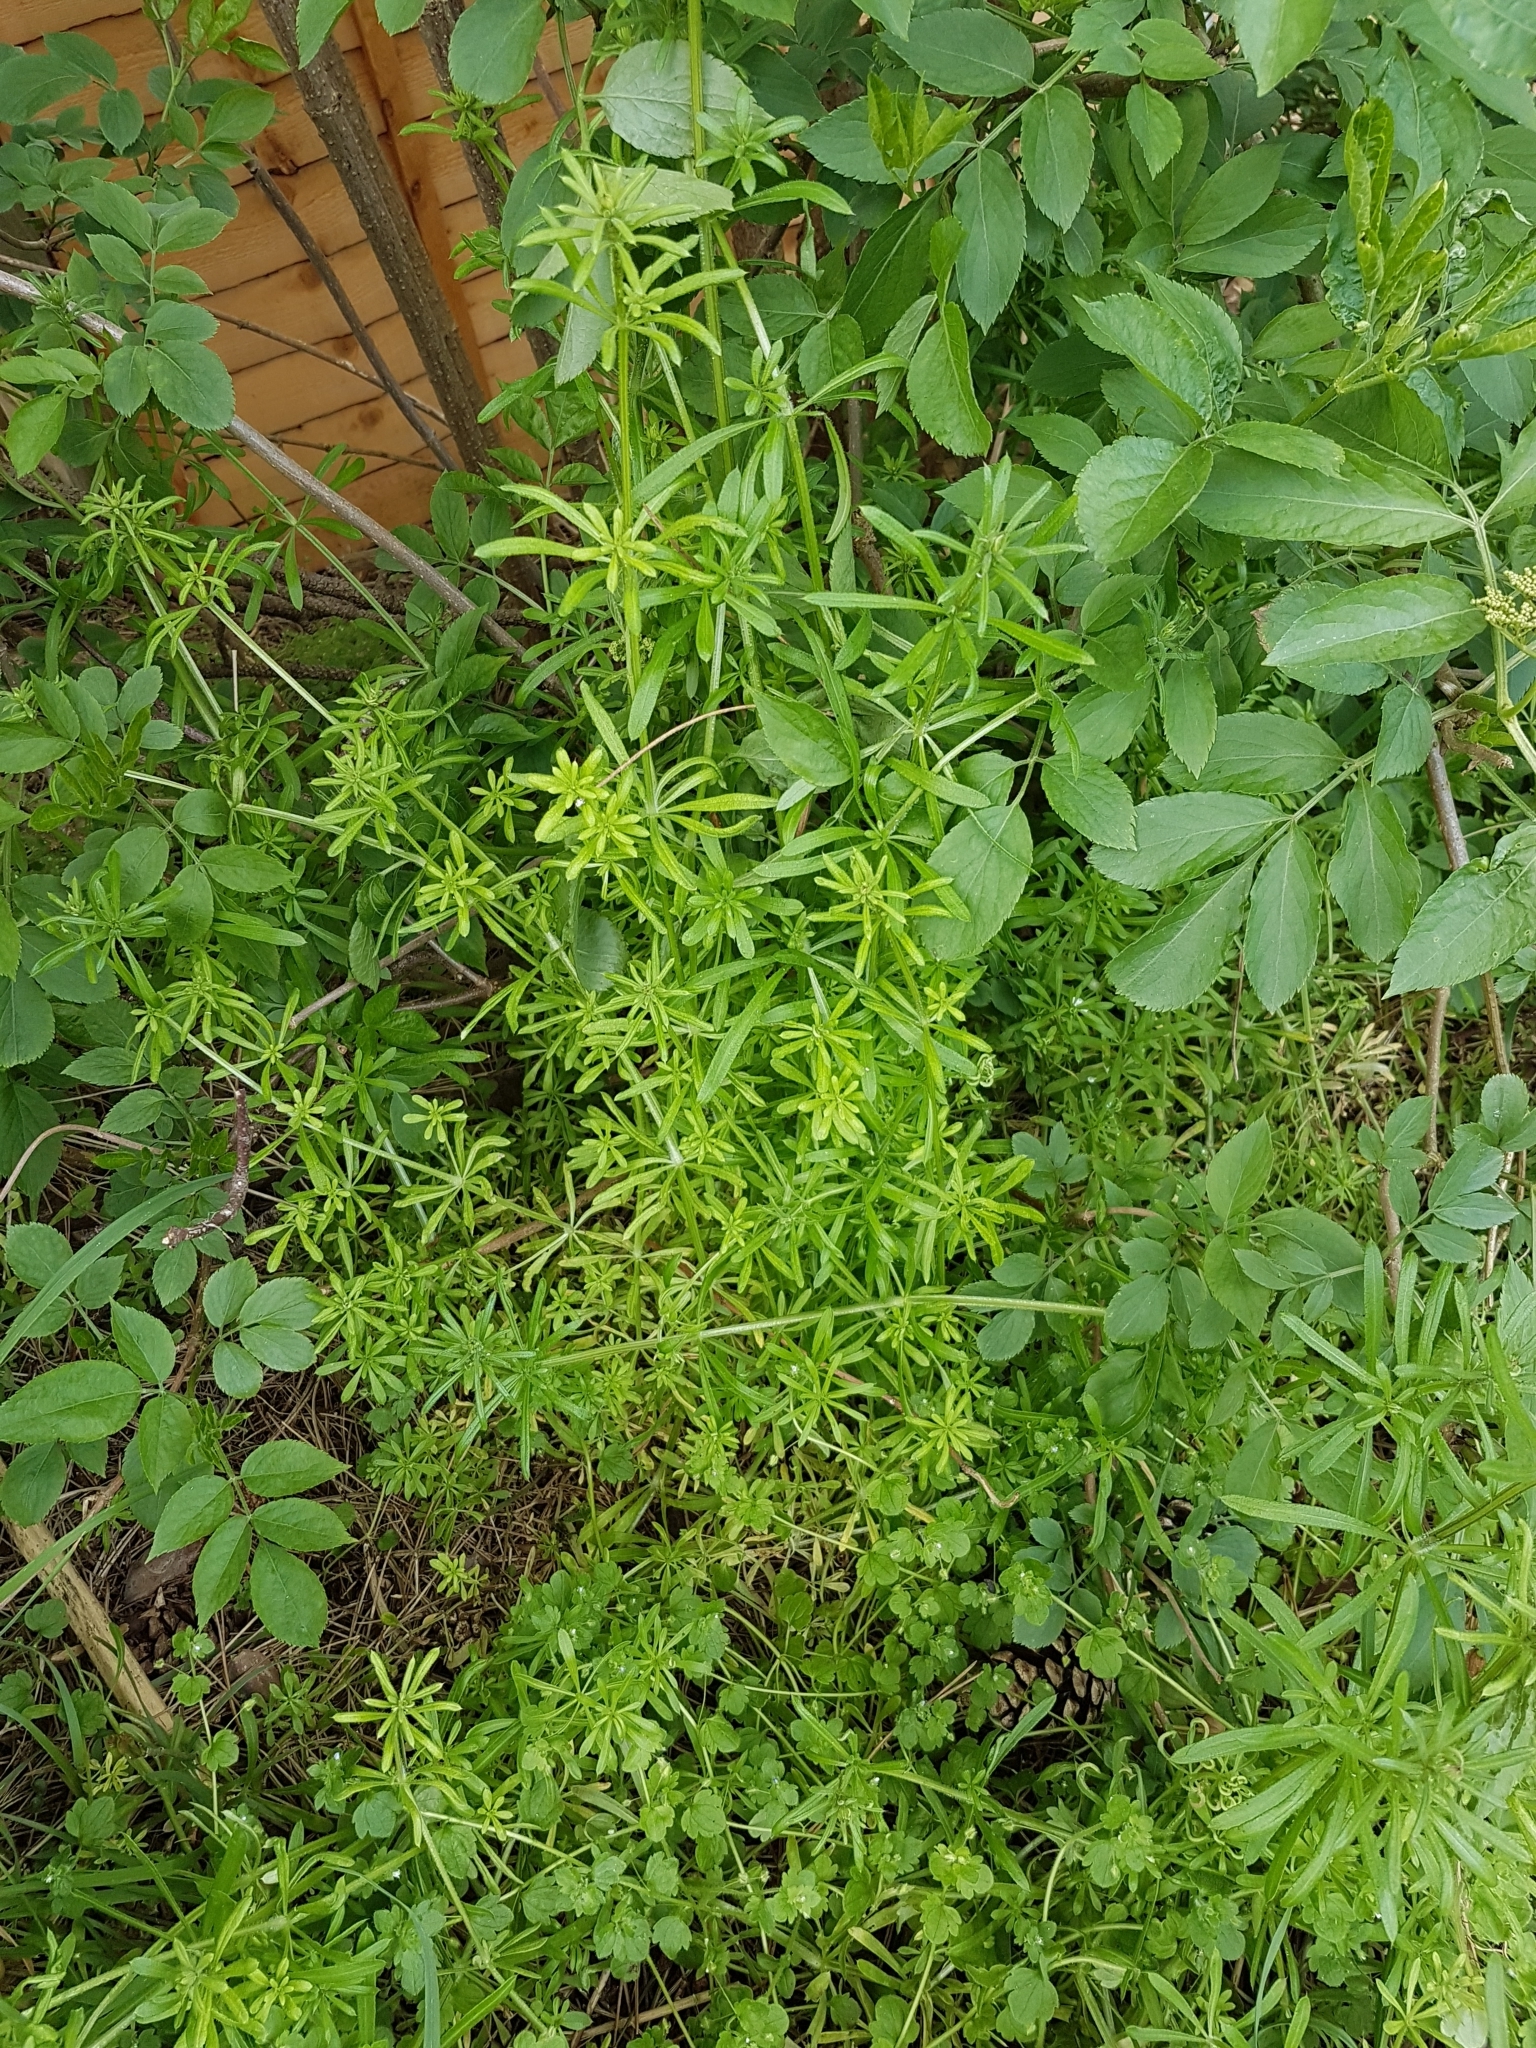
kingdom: Plantae
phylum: Tracheophyta
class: Magnoliopsida
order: Gentianales
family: Rubiaceae
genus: Galium
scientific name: Galium aparine
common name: Cleavers
